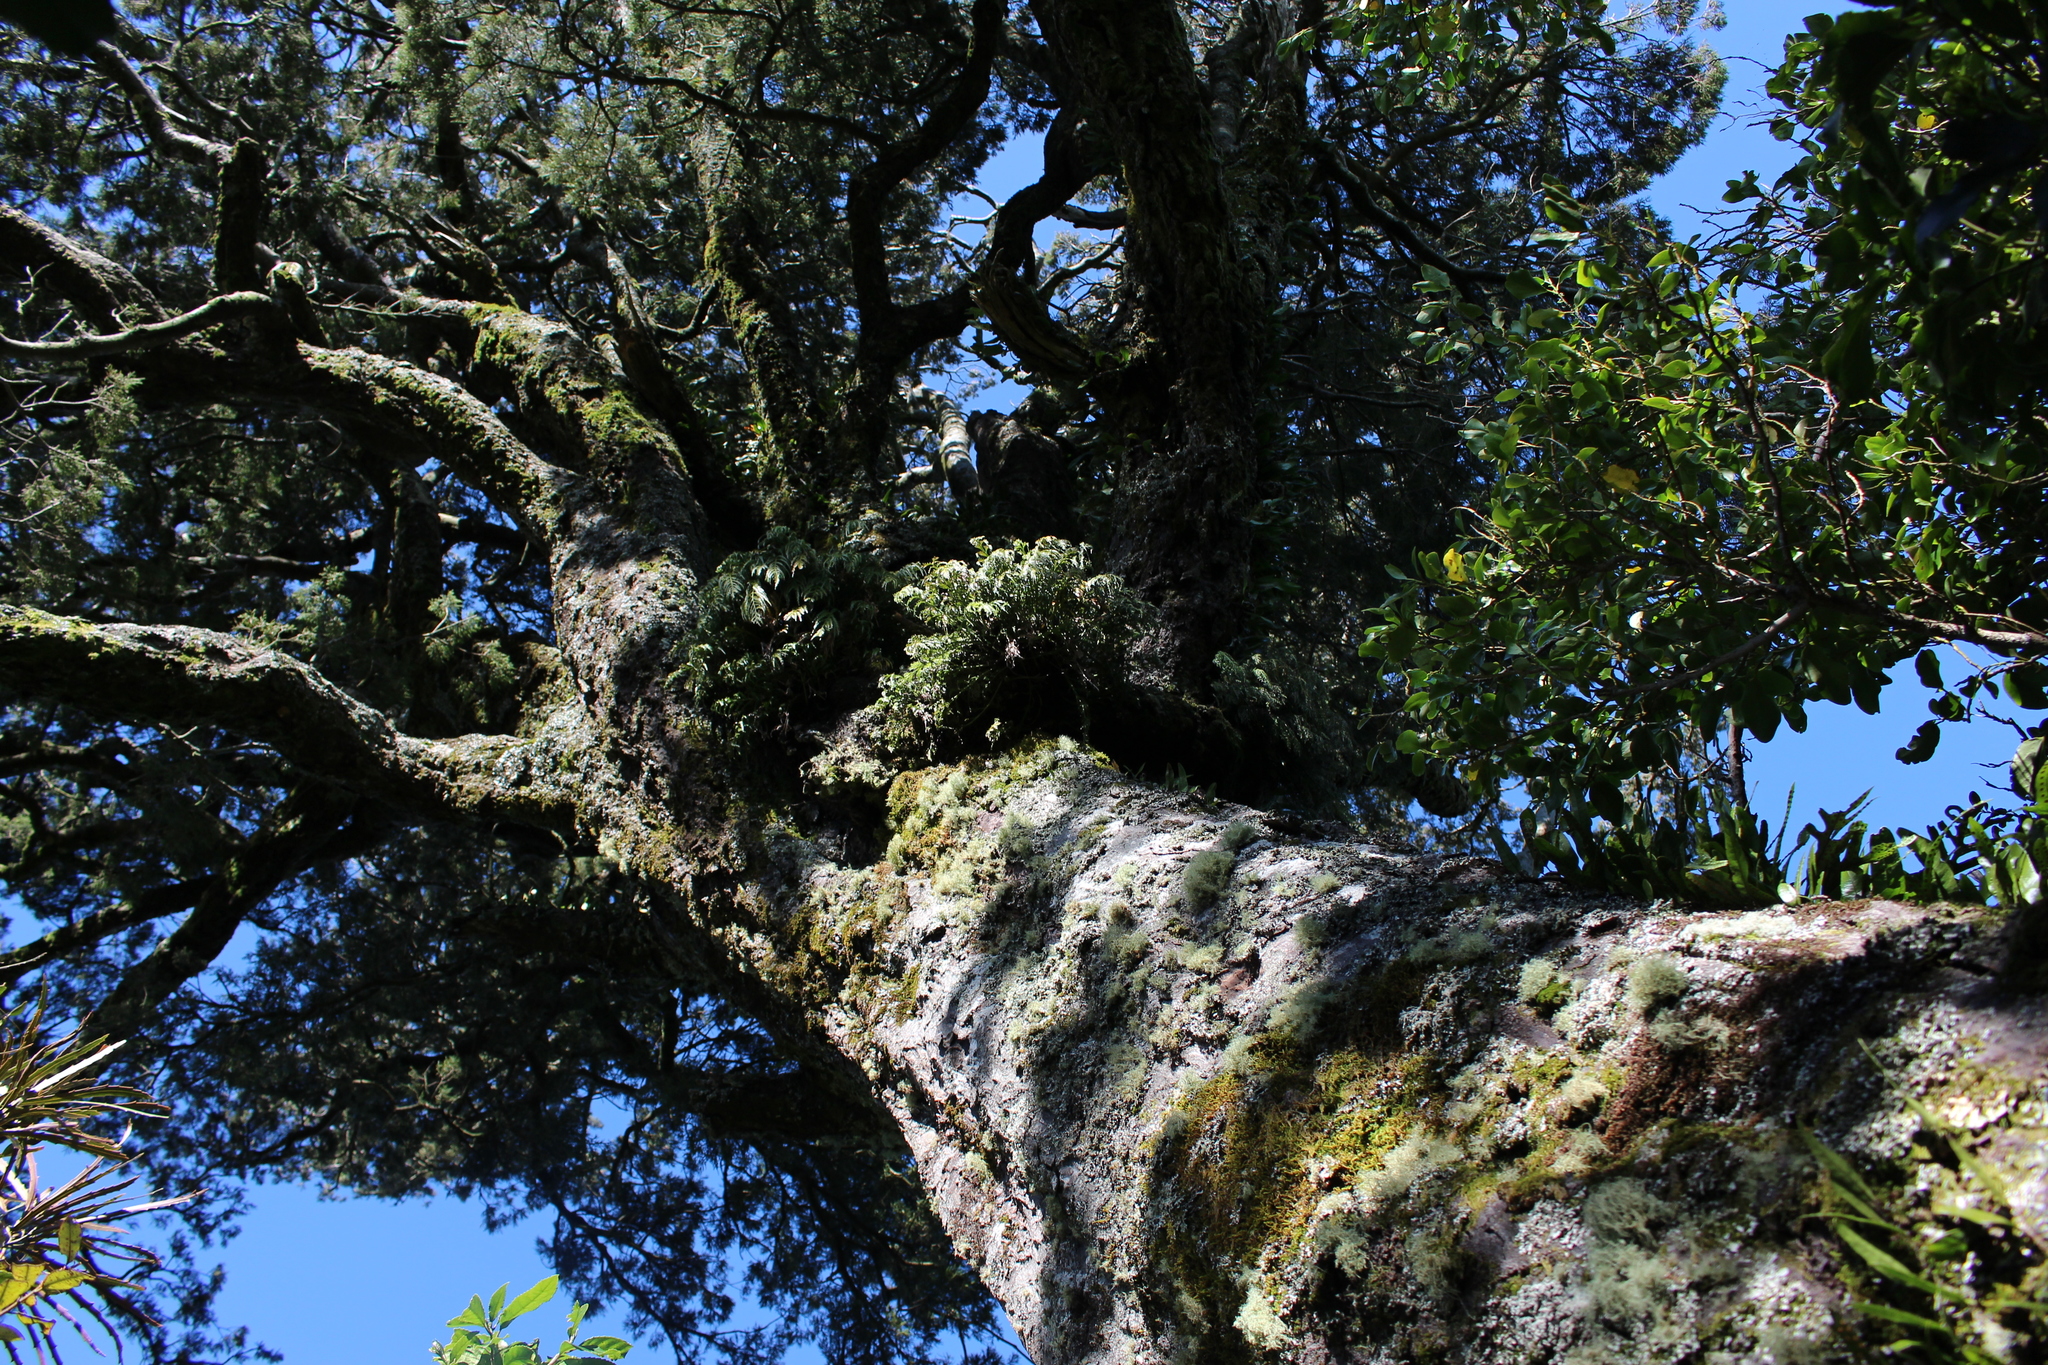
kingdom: Plantae
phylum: Tracheophyta
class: Magnoliopsida
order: Apiales
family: Griseliniaceae
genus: Griselinia
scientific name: Griselinia littoralis
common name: New zealand broadleaf
